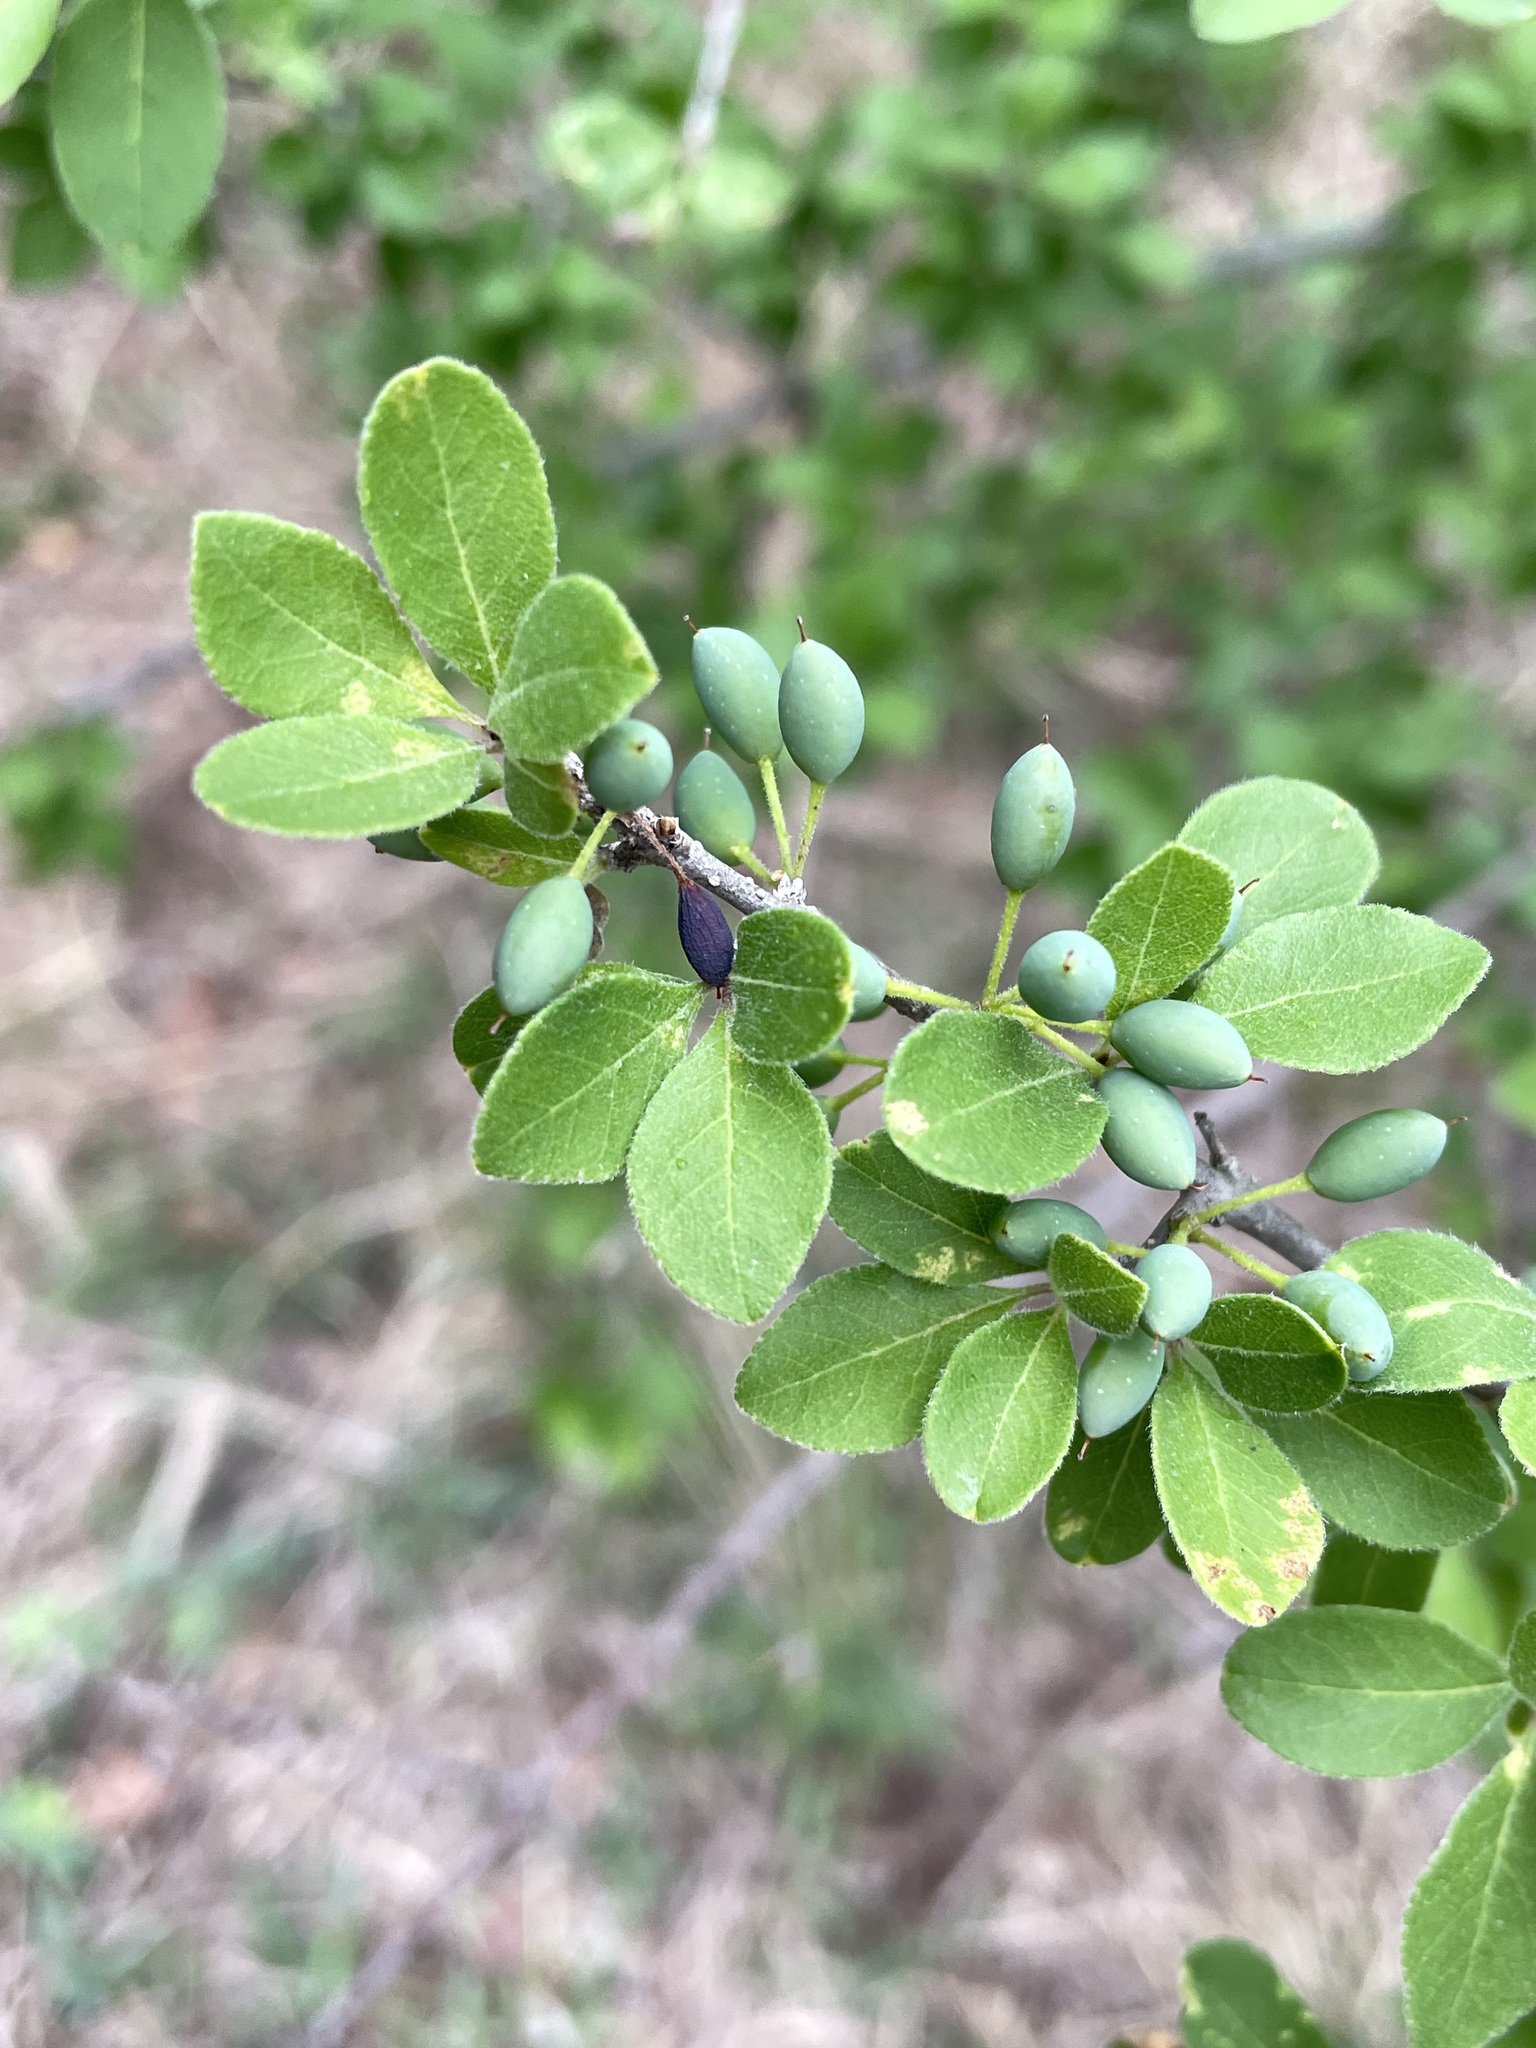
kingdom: Plantae
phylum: Tracheophyta
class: Magnoliopsida
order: Lamiales
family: Oleaceae
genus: Forestiera
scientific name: Forestiera pubescens
